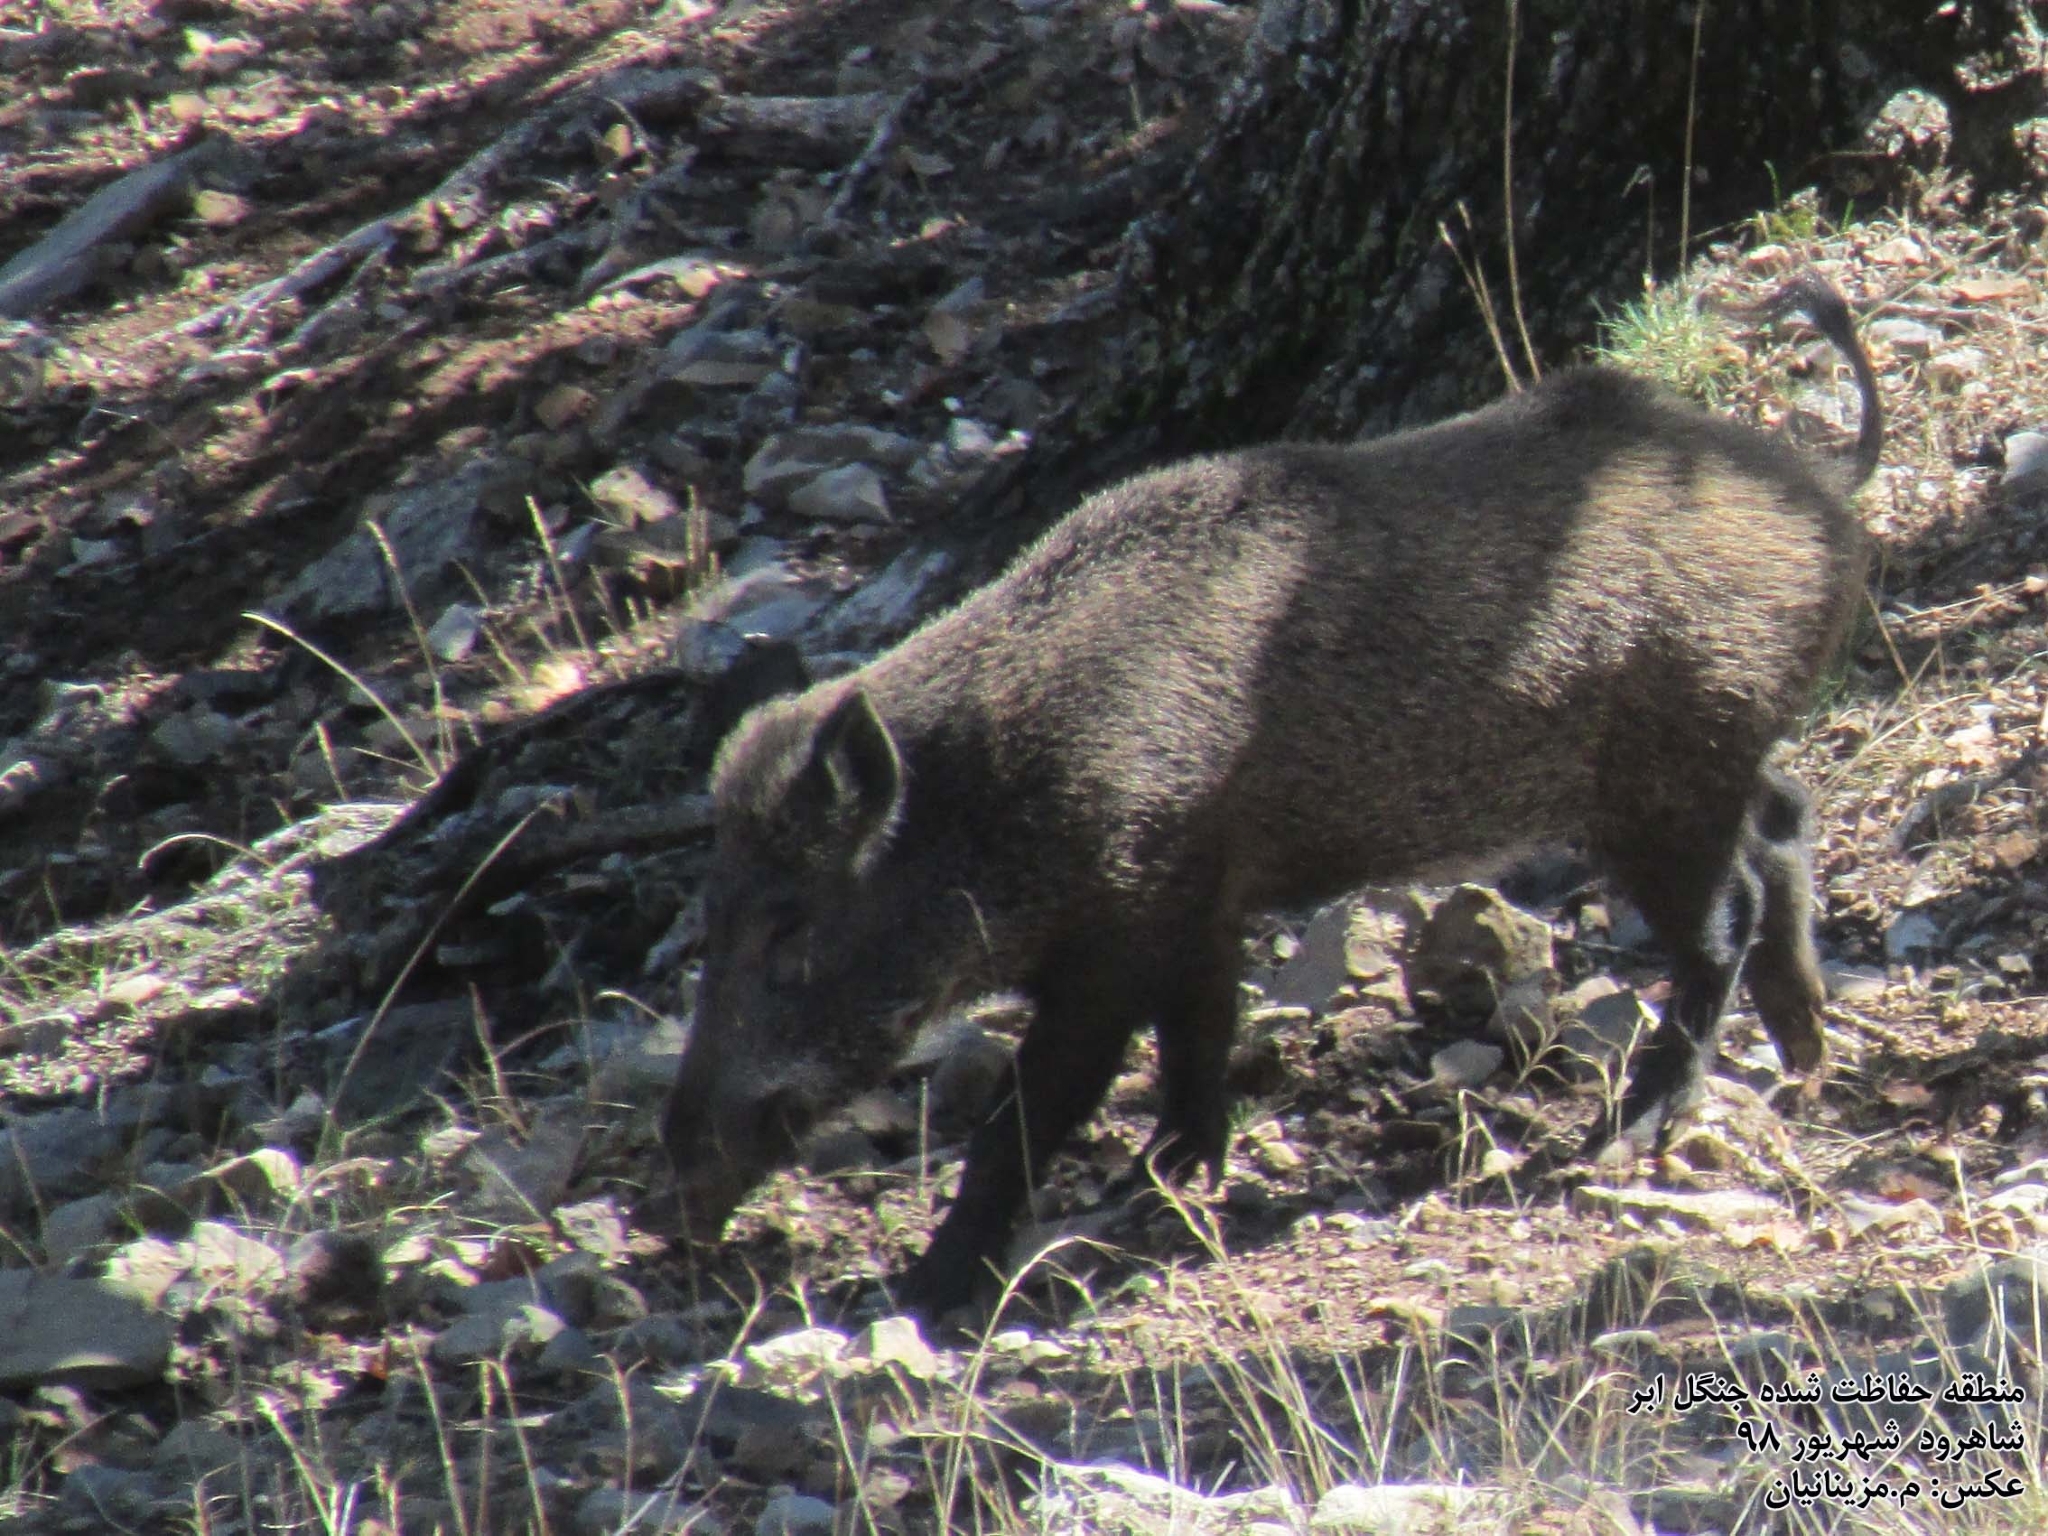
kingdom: Animalia
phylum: Chordata
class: Mammalia
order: Artiodactyla
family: Suidae
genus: Sus
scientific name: Sus scrofa
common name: Wild boar
